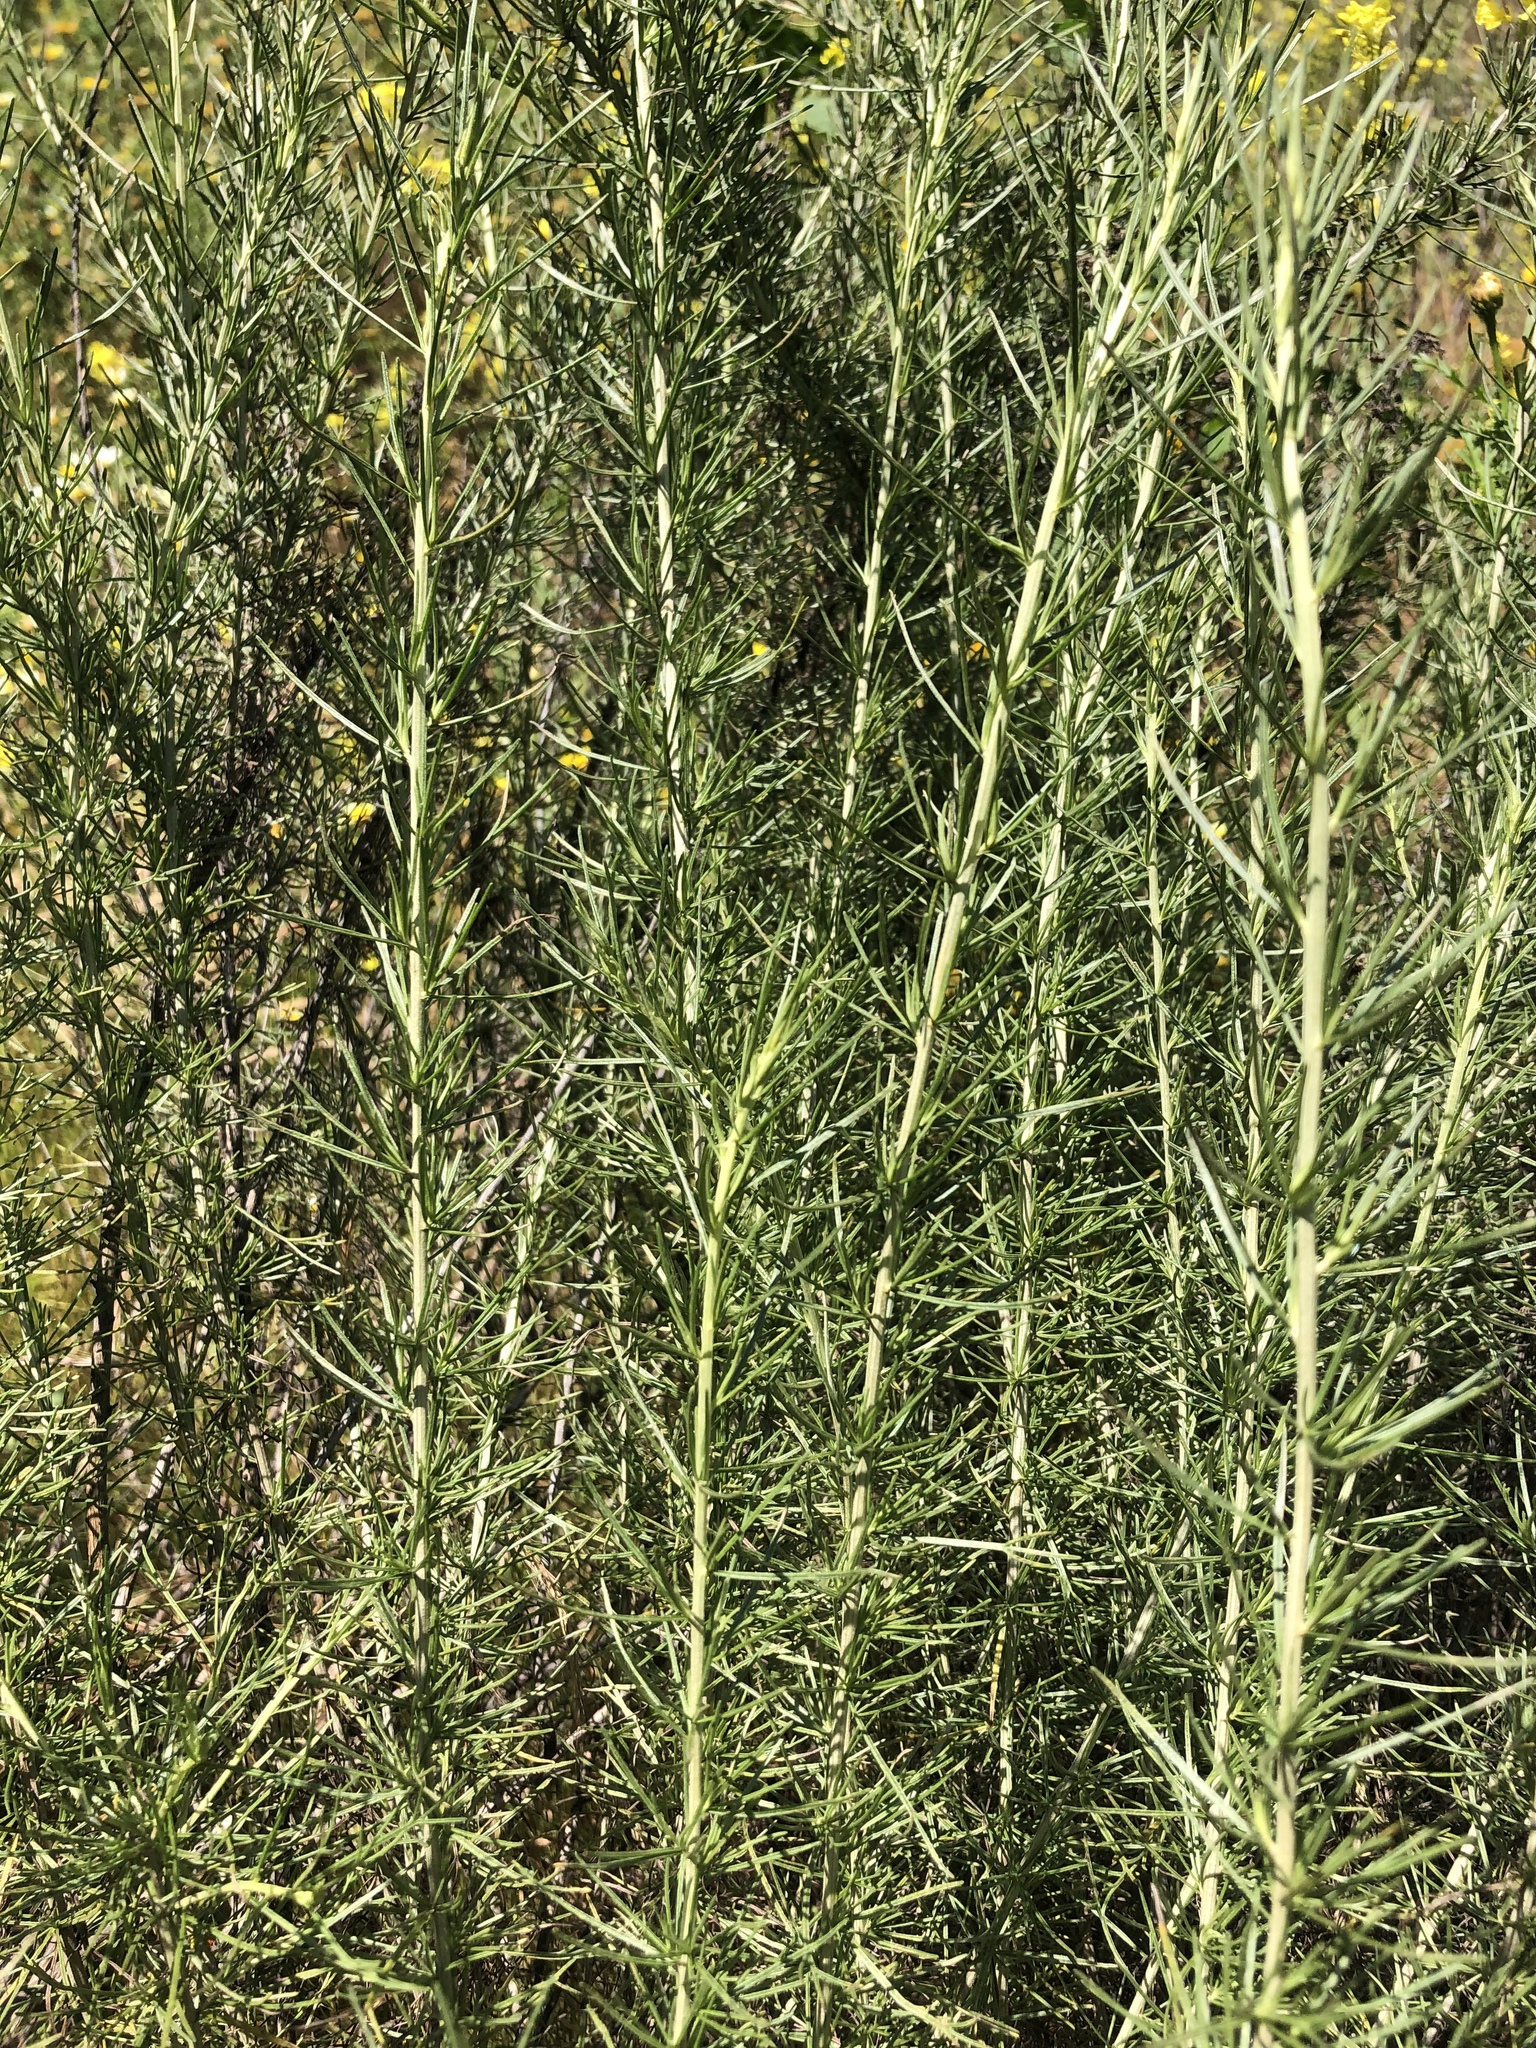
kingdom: Plantae
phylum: Tracheophyta
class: Magnoliopsida
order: Asterales
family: Asteraceae
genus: Artemisia
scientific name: Artemisia californica
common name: California sagebrush
